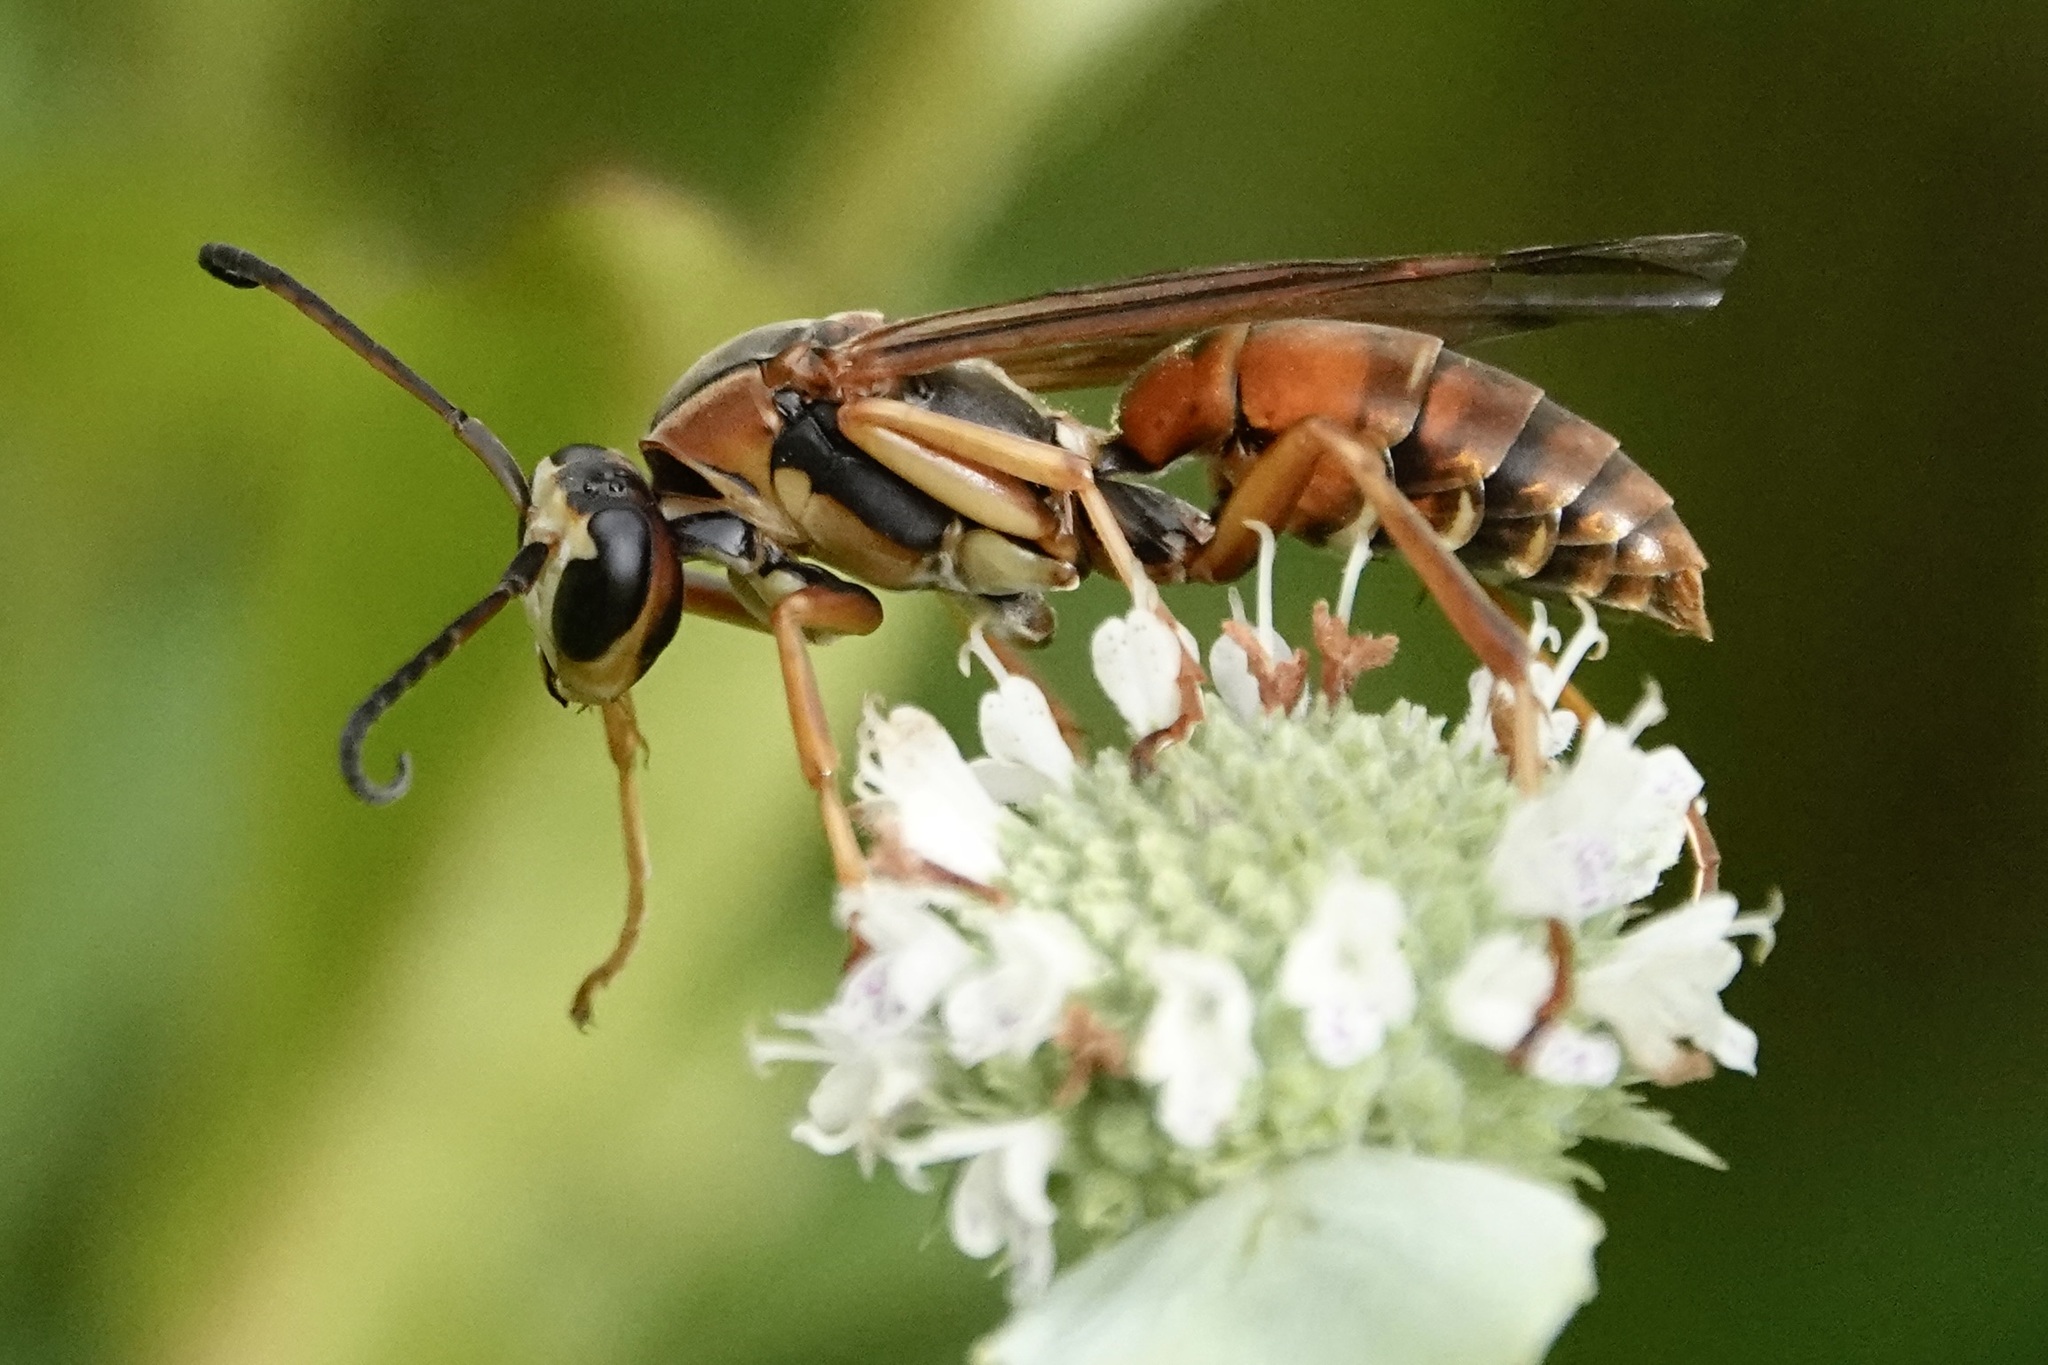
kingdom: Animalia
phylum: Arthropoda
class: Insecta
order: Hymenoptera
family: Eumenidae
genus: Polistes
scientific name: Polistes fuscatus
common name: Dark paper wasp
